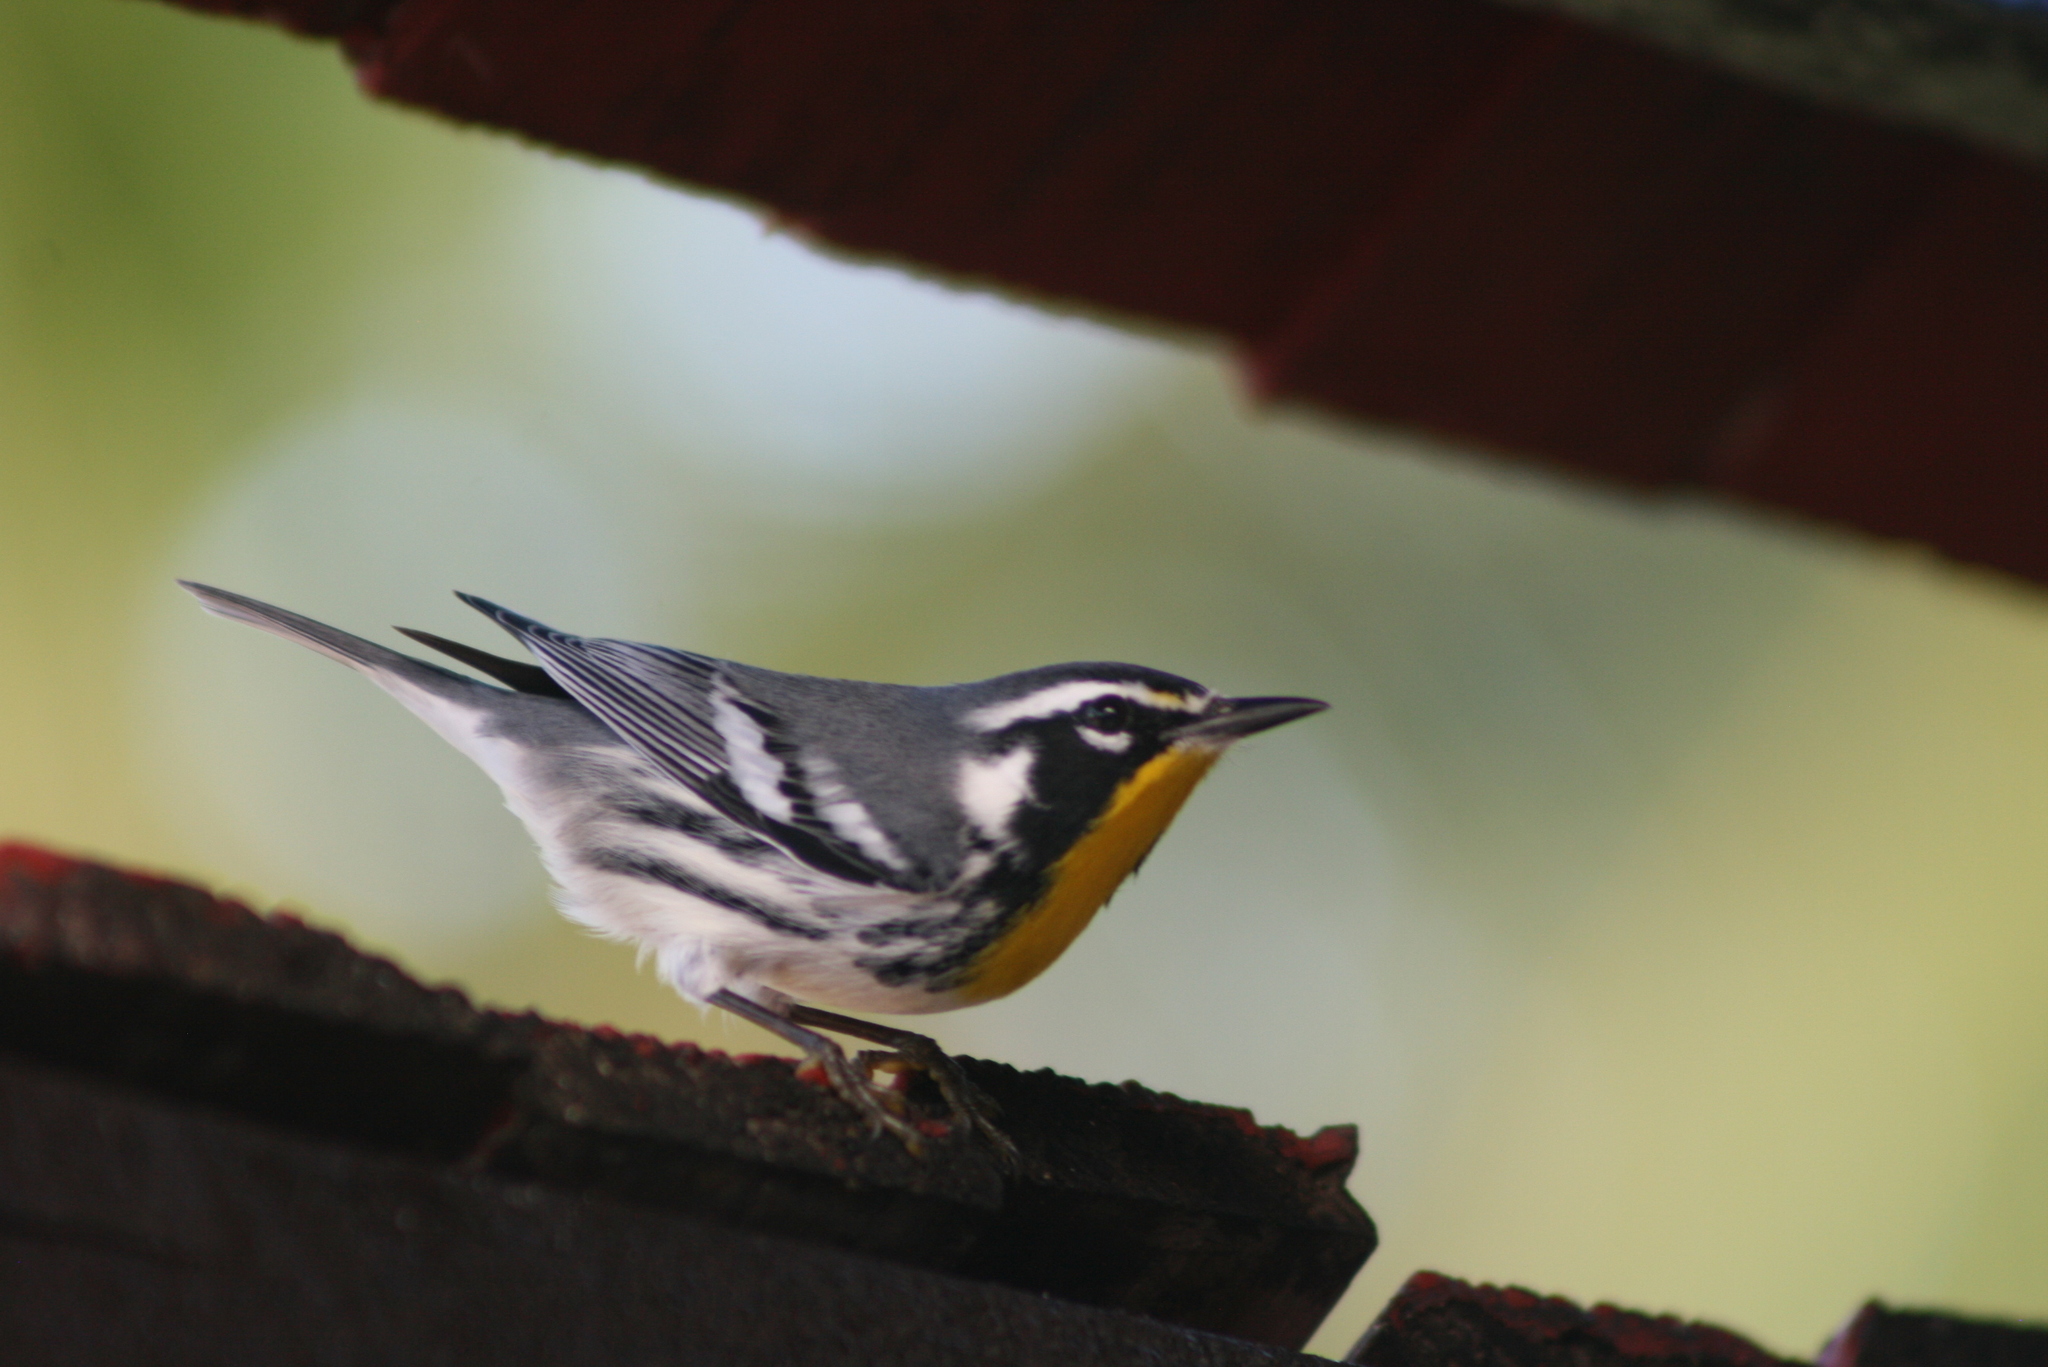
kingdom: Animalia
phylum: Chordata
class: Aves
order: Passeriformes
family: Parulidae
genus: Setophaga
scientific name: Setophaga dominica
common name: Yellow-throated warbler
